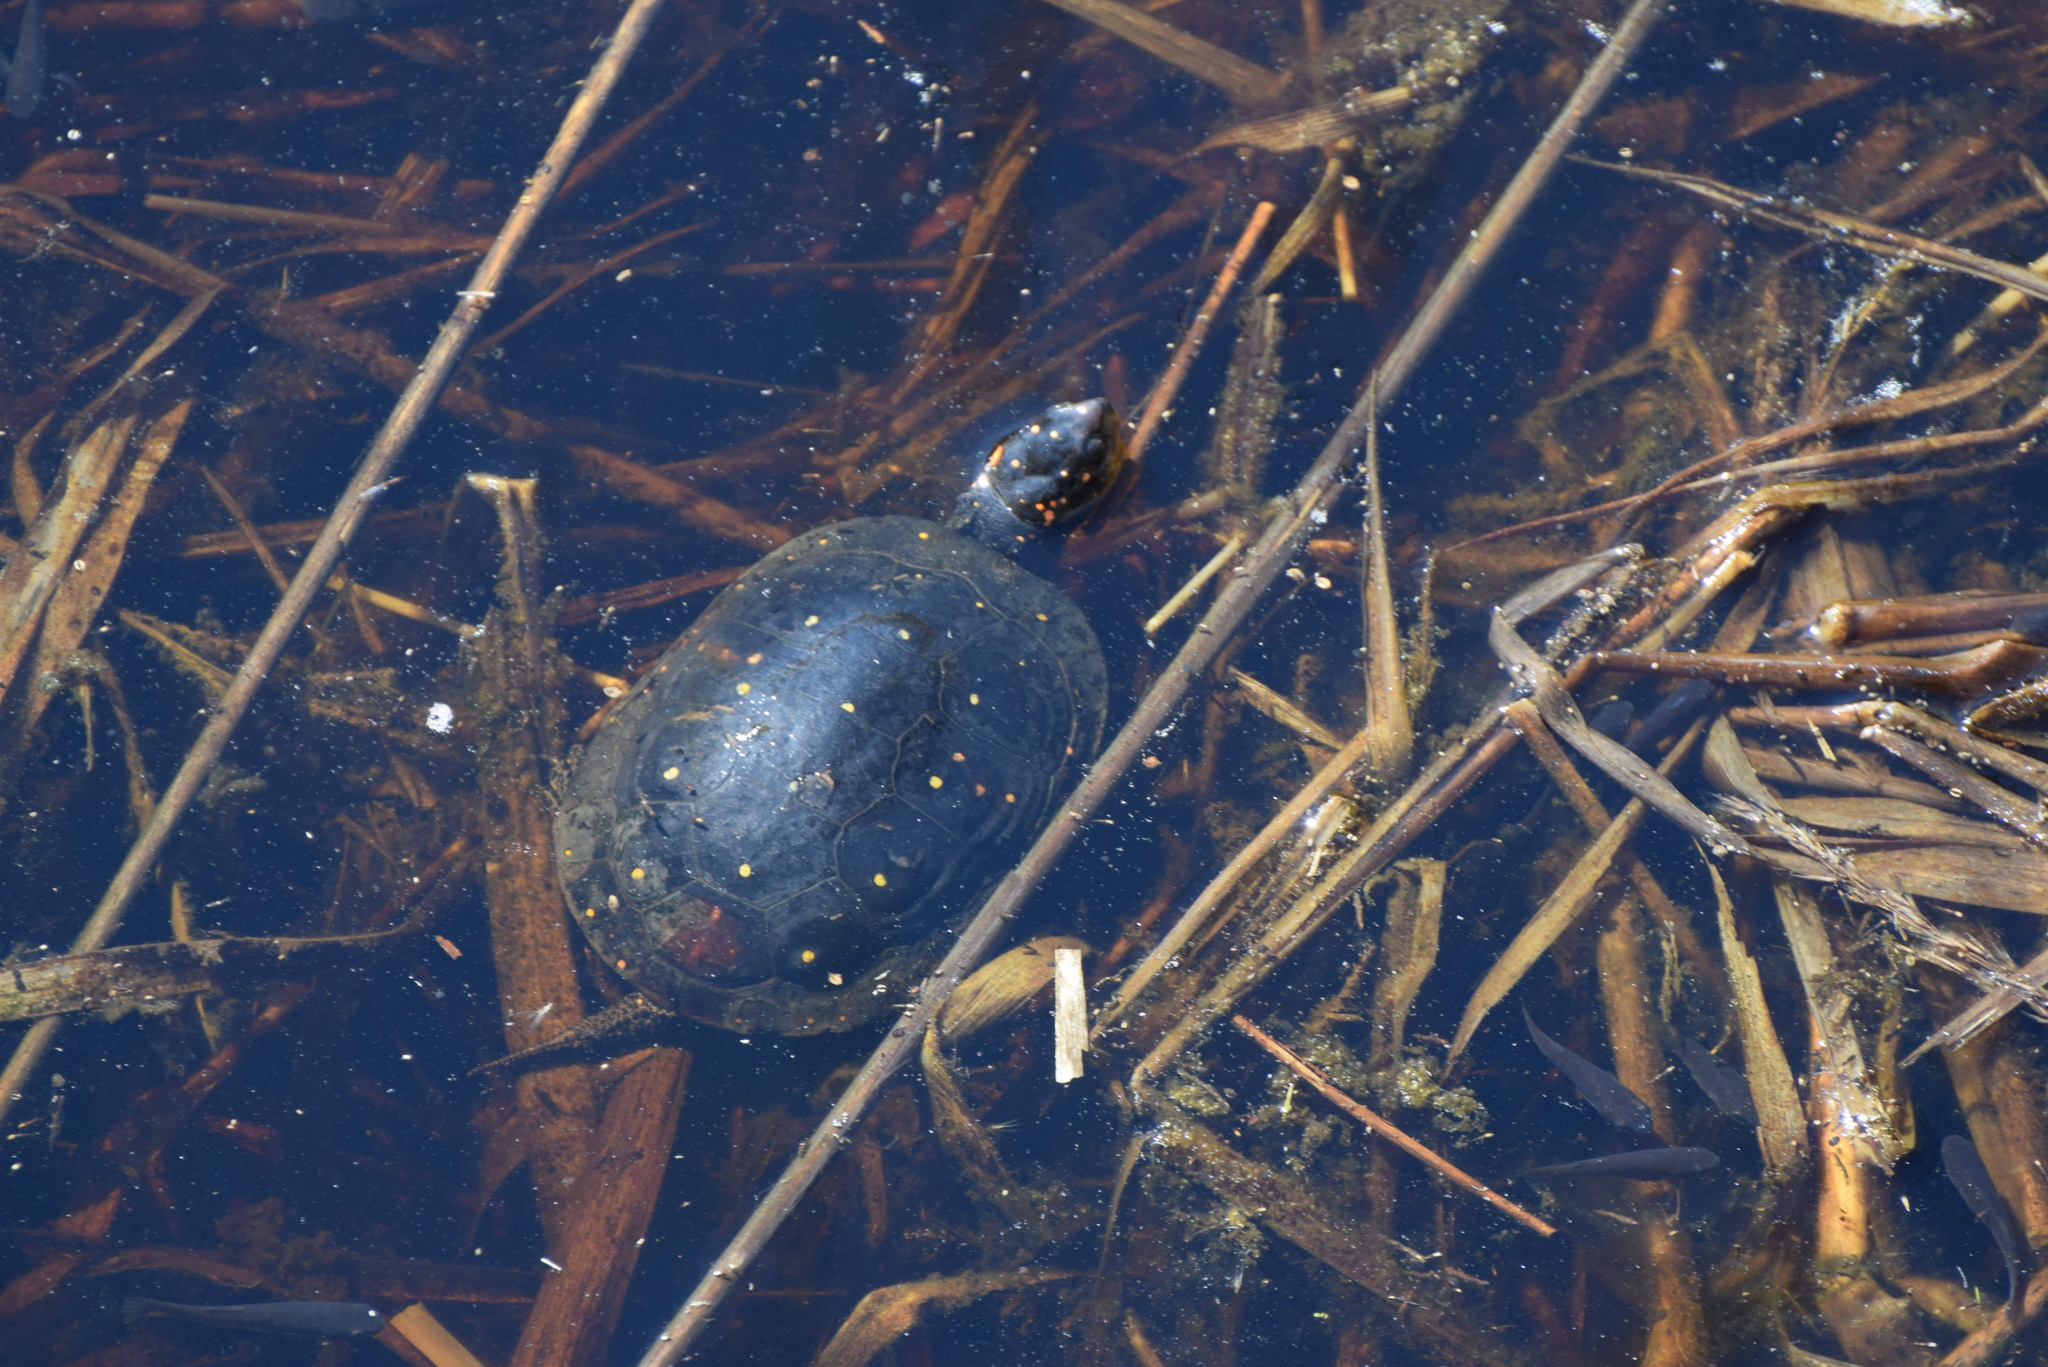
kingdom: Animalia
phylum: Chordata
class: Testudines
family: Emydidae
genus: Clemmys
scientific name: Clemmys guttata
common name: Spotted turtle
